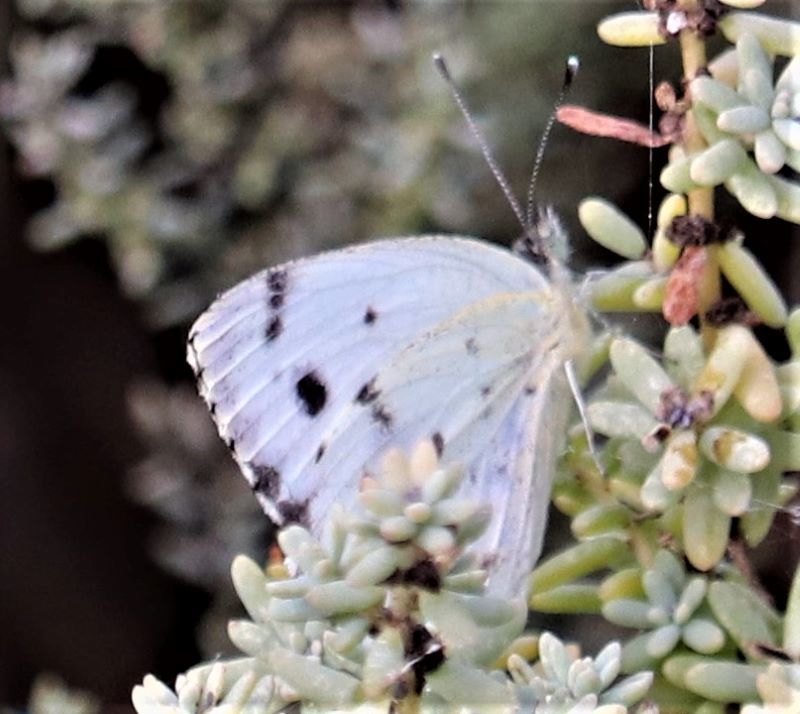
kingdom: Animalia
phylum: Arthropoda
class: Insecta
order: Lepidoptera
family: Pieridae
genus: Dixeia
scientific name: Dixeia charina
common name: African small white
